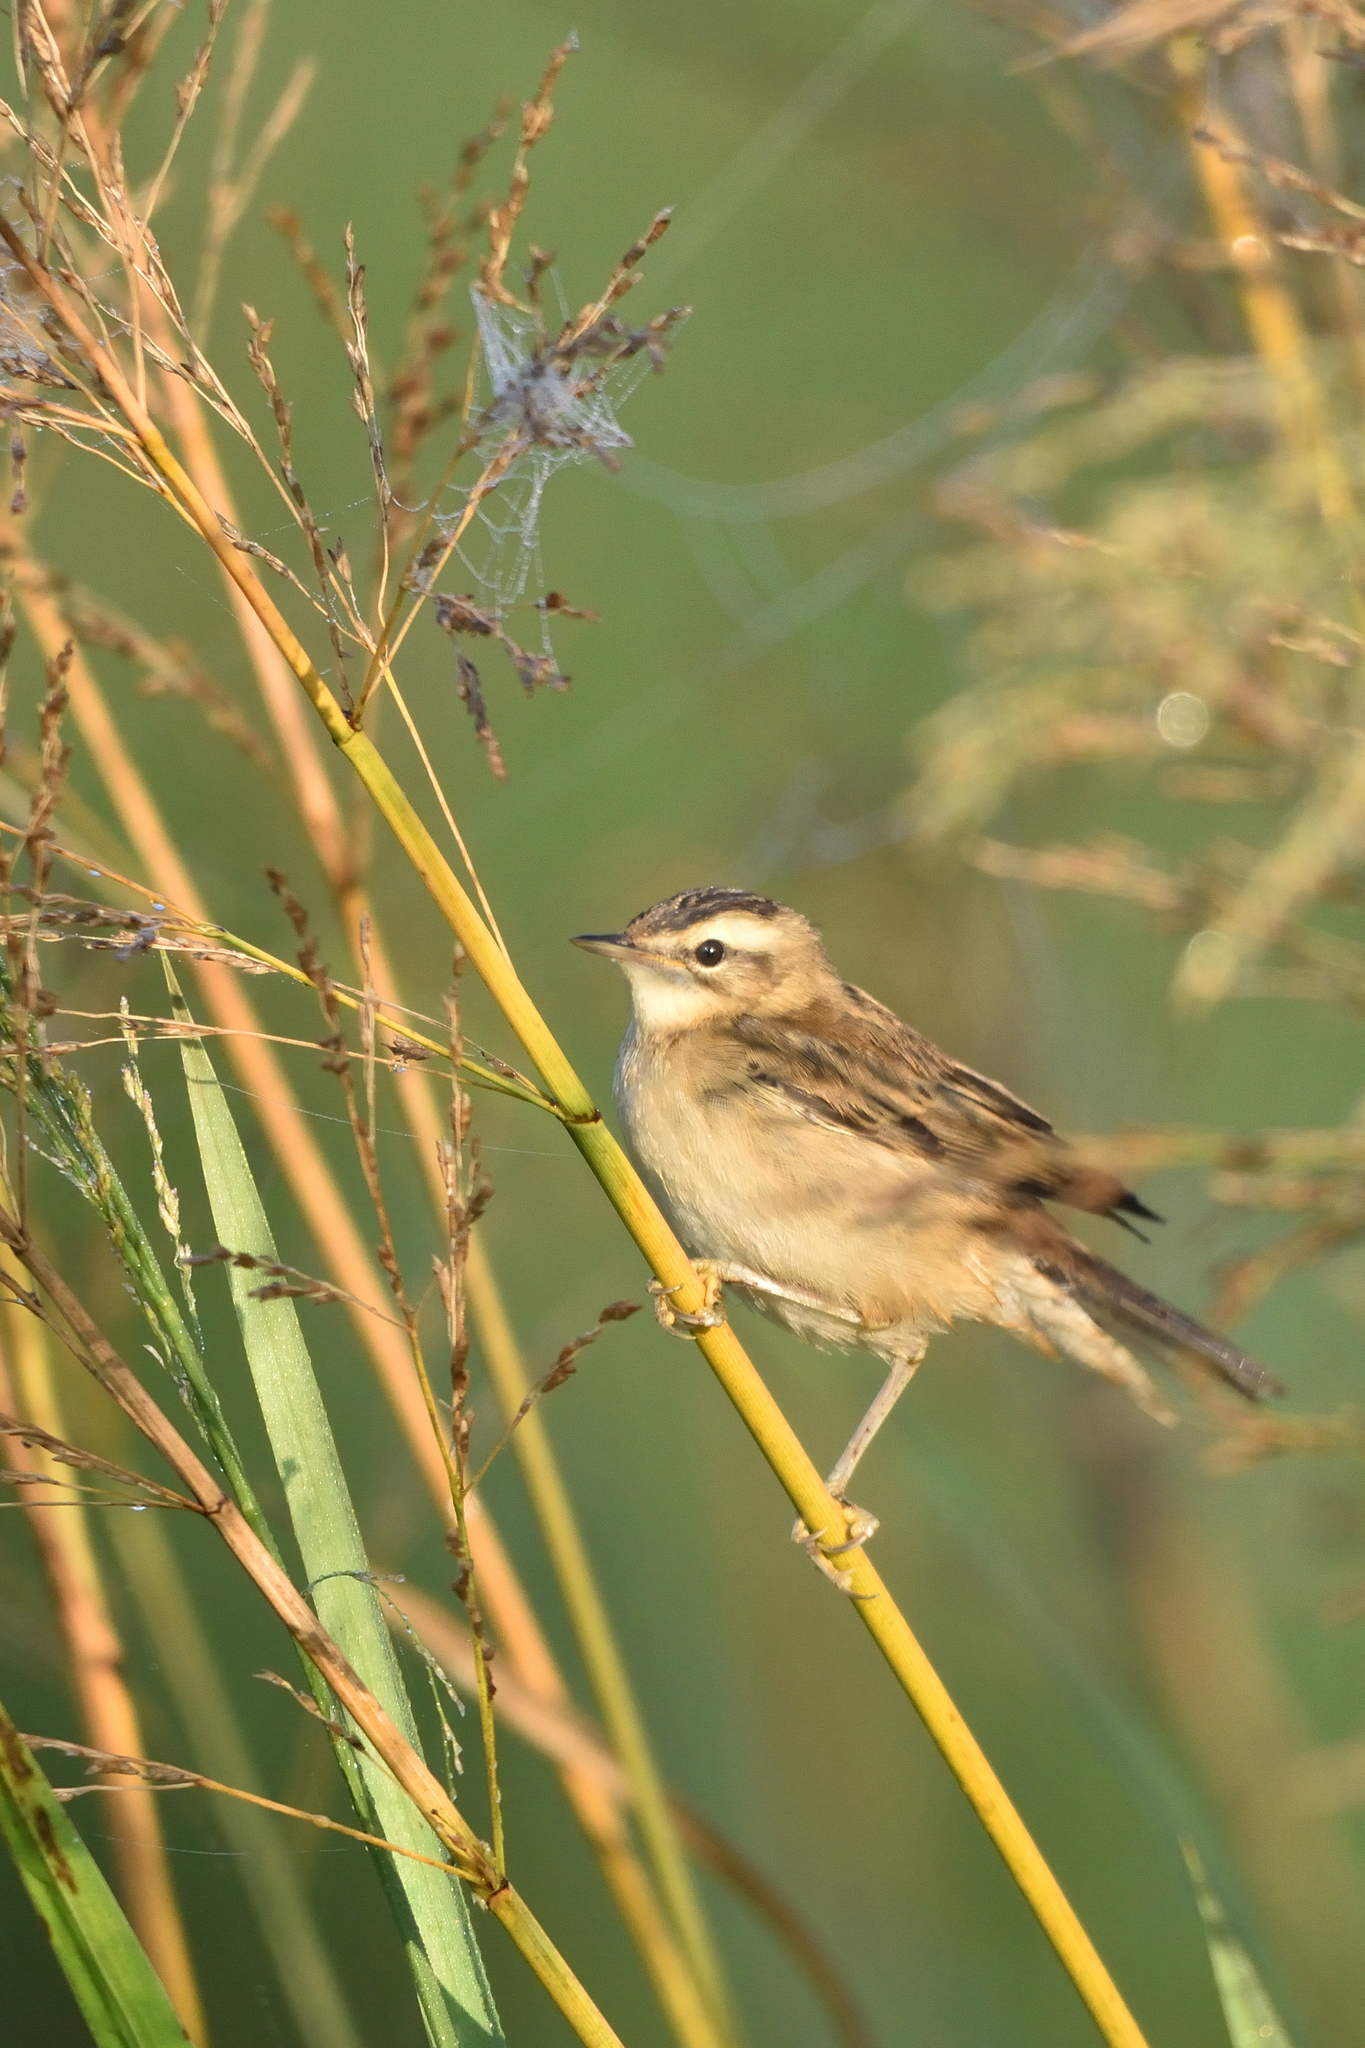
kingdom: Animalia
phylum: Chordata
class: Aves
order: Passeriformes
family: Acrocephalidae
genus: Acrocephalus
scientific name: Acrocephalus schoenobaenus
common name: Sedge warbler
